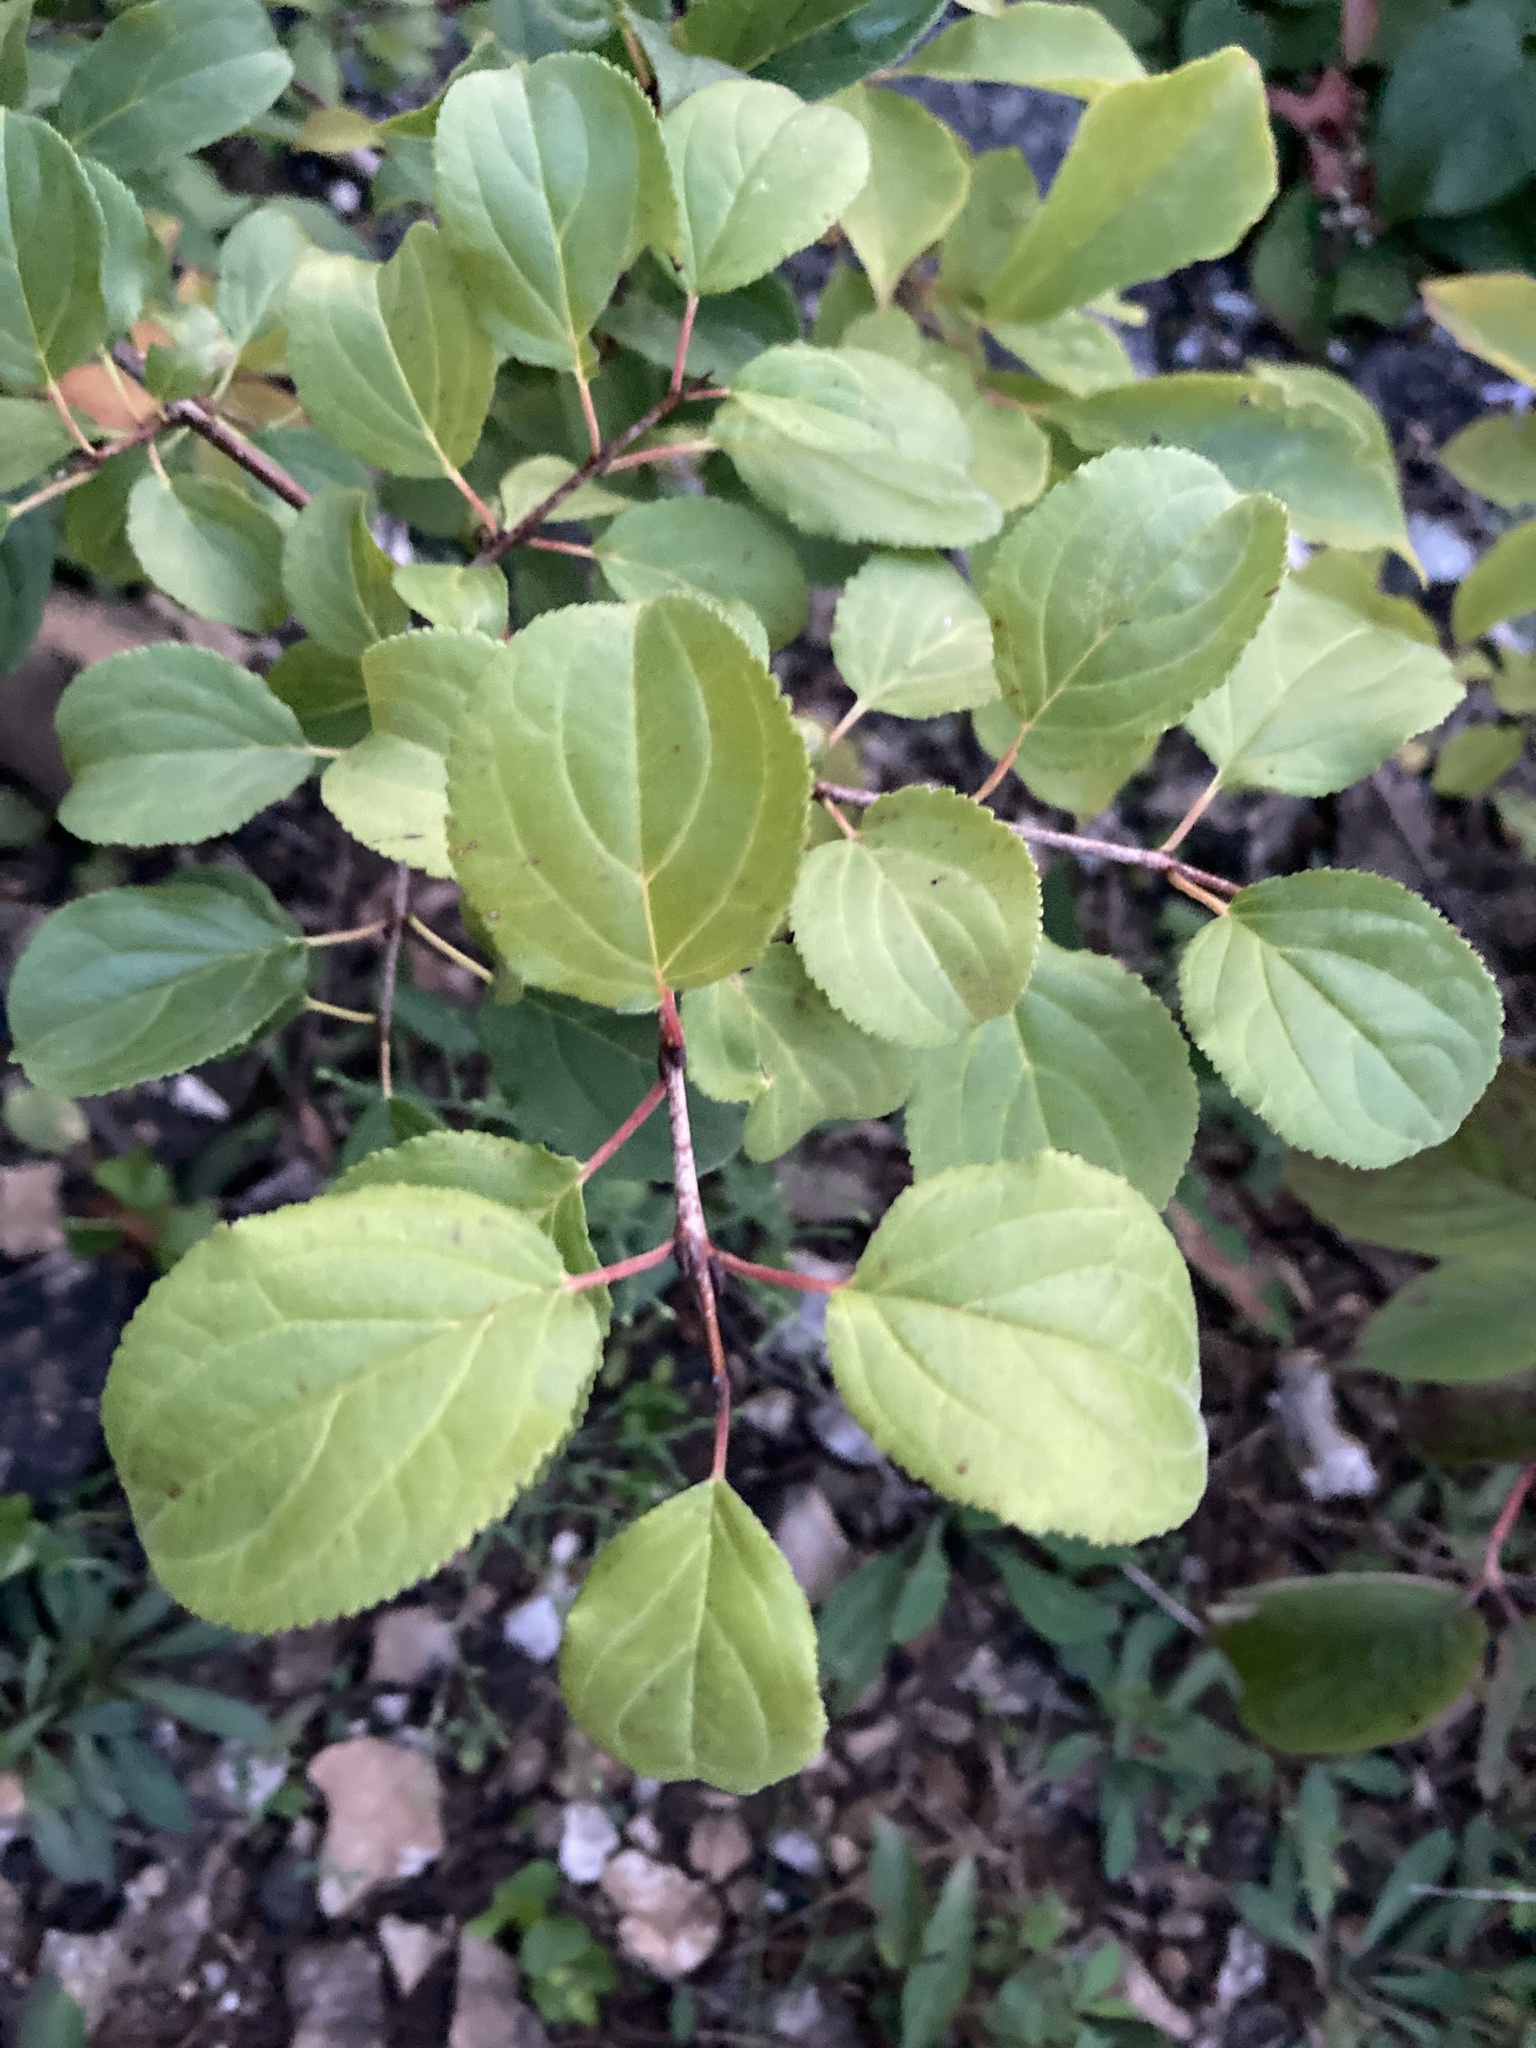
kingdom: Plantae
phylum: Tracheophyta
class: Magnoliopsida
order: Rosales
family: Rhamnaceae
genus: Rhamnus
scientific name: Rhamnus cathartica
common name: Common buckthorn
